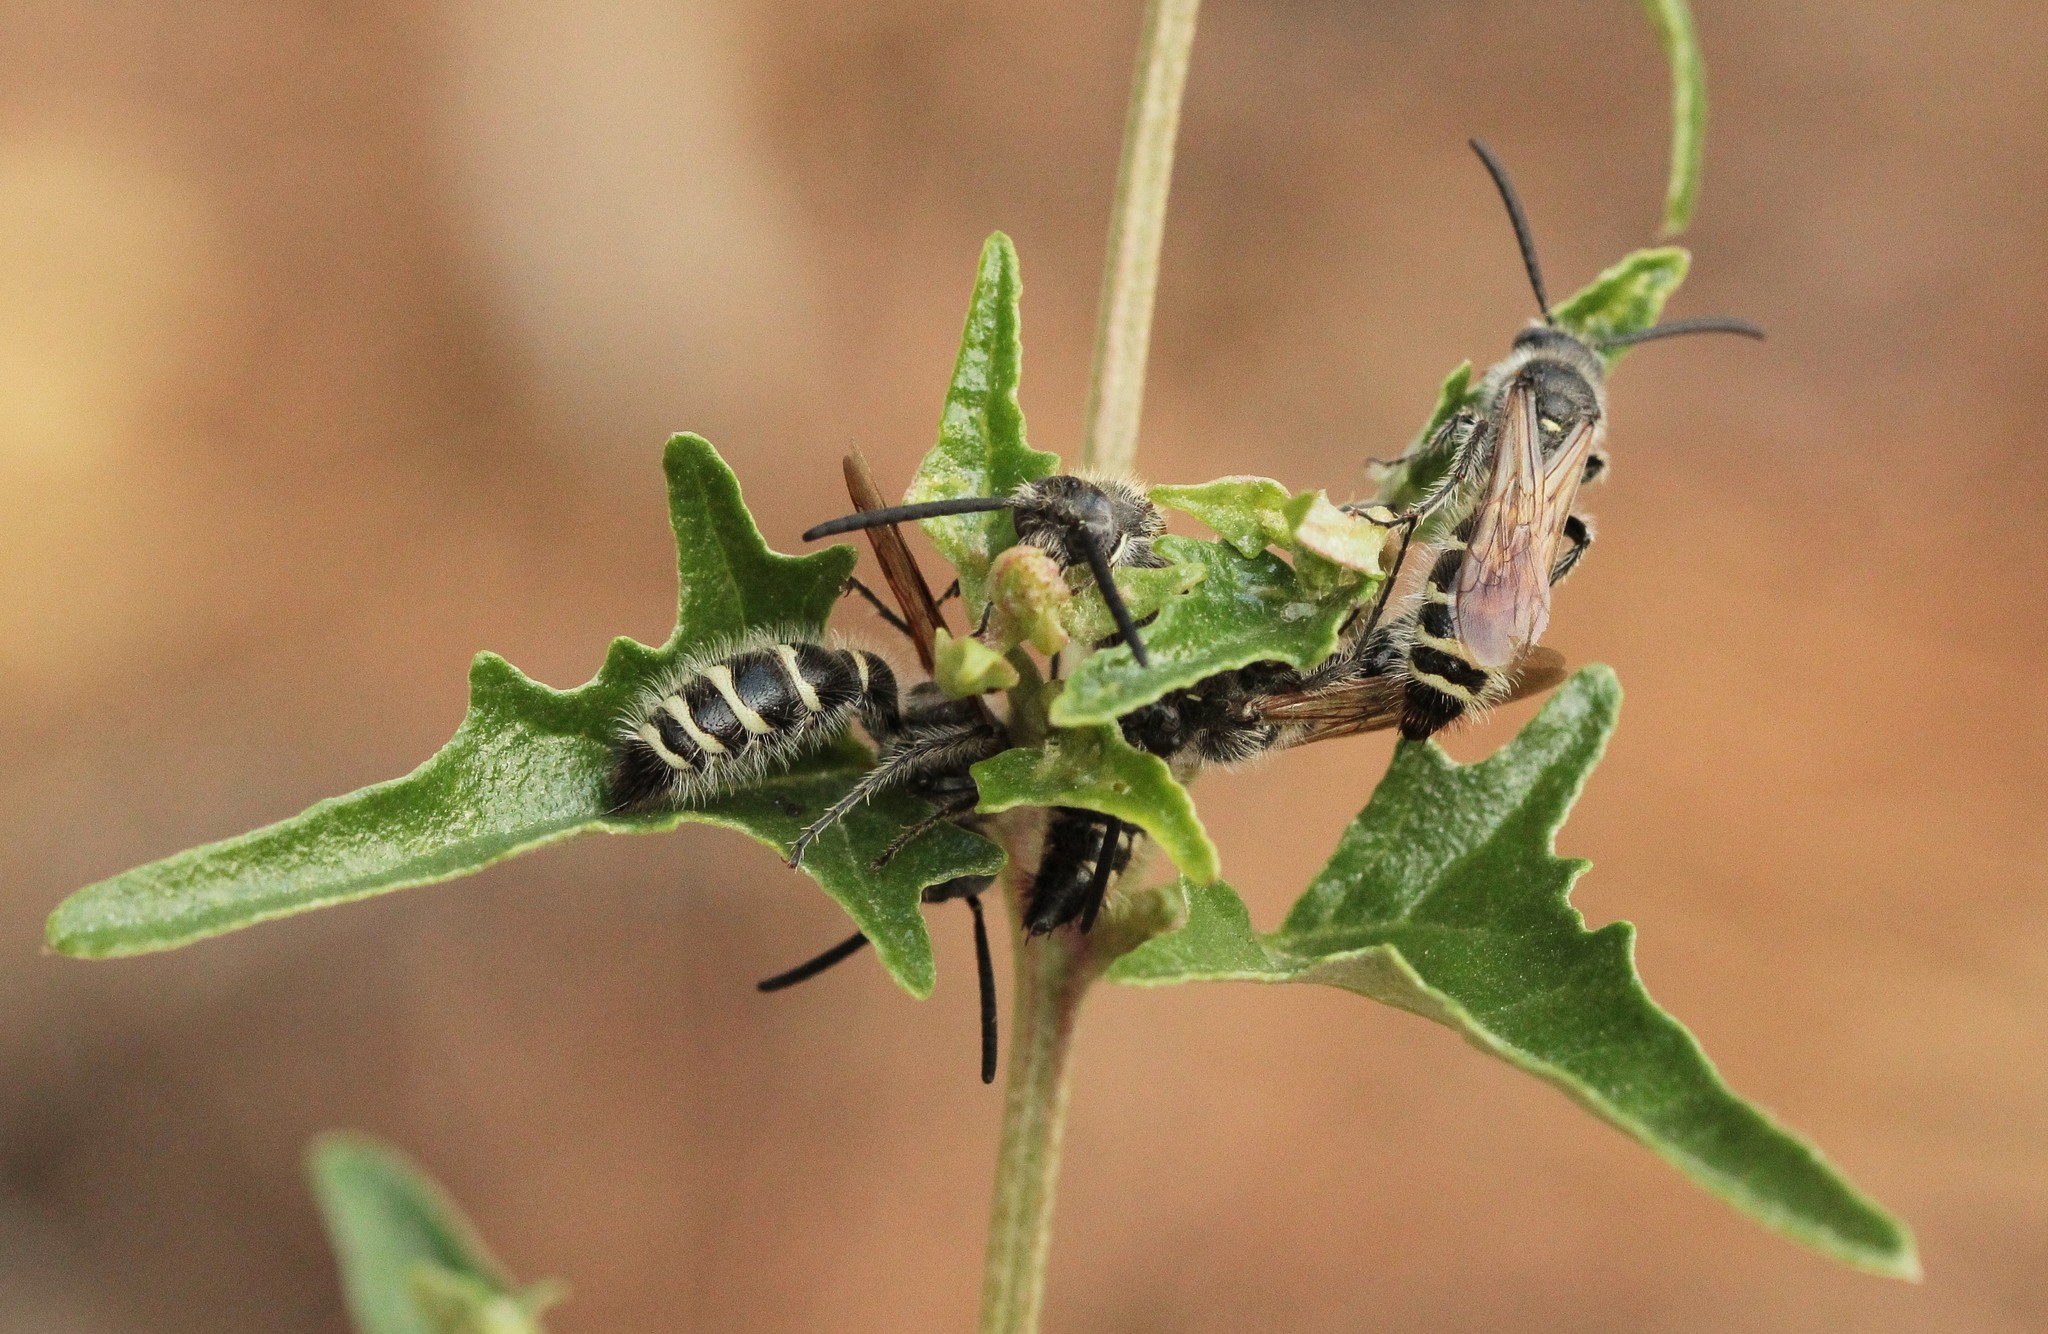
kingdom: Animalia
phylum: Arthropoda
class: Insecta
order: Hymenoptera
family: Scoliidae
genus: Colpa
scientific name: Colpa quinquecincta
